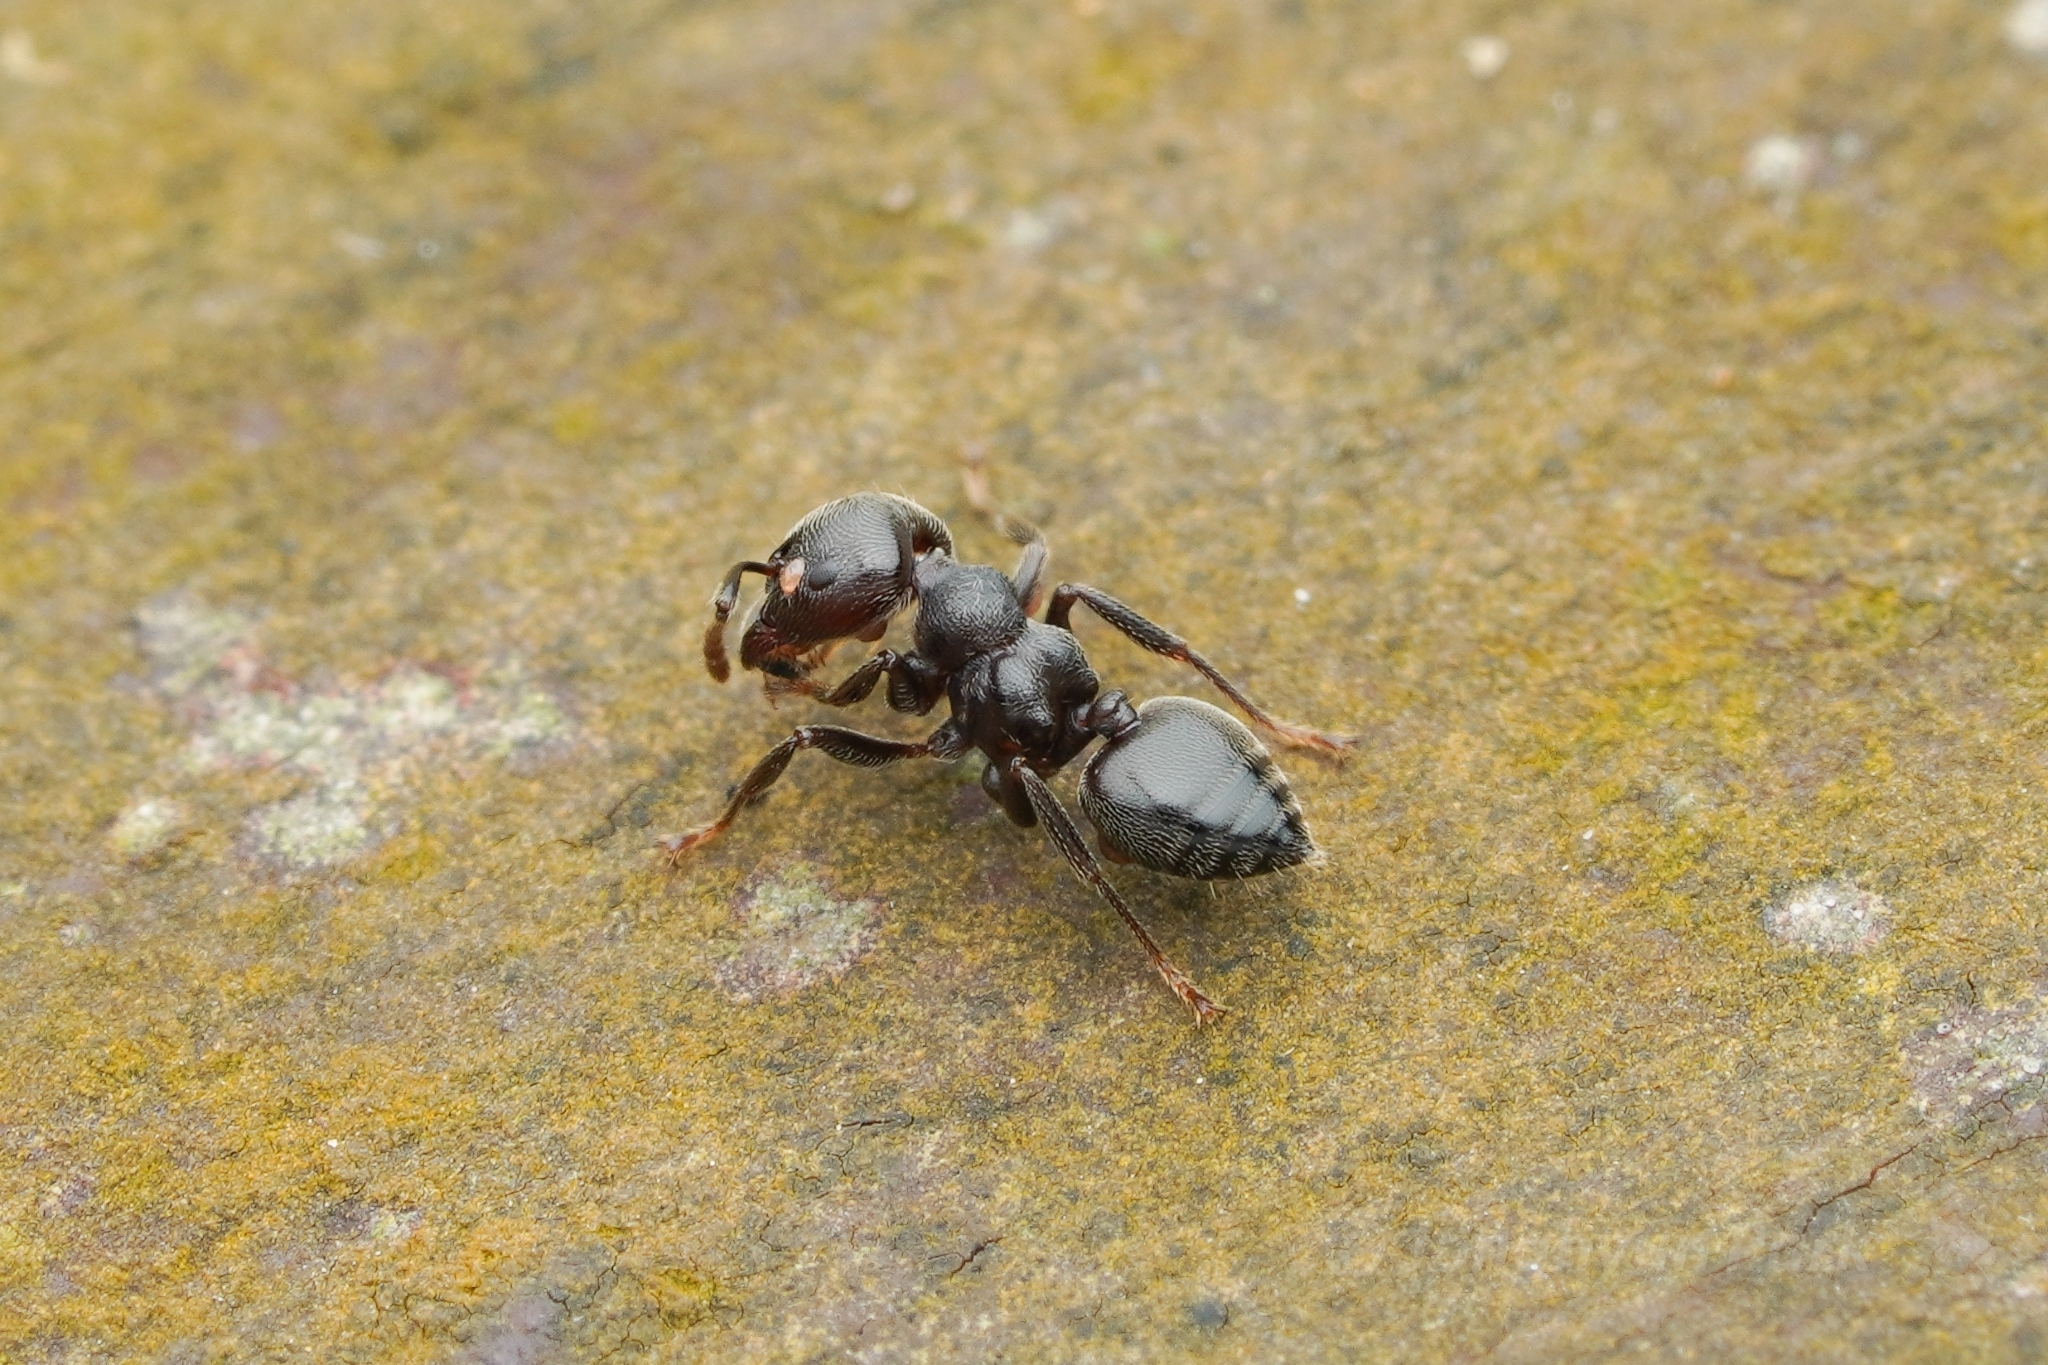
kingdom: Animalia
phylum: Arthropoda
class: Insecta
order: Hymenoptera
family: Formicidae
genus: Crematogaster
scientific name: Crematogaster sewardi
